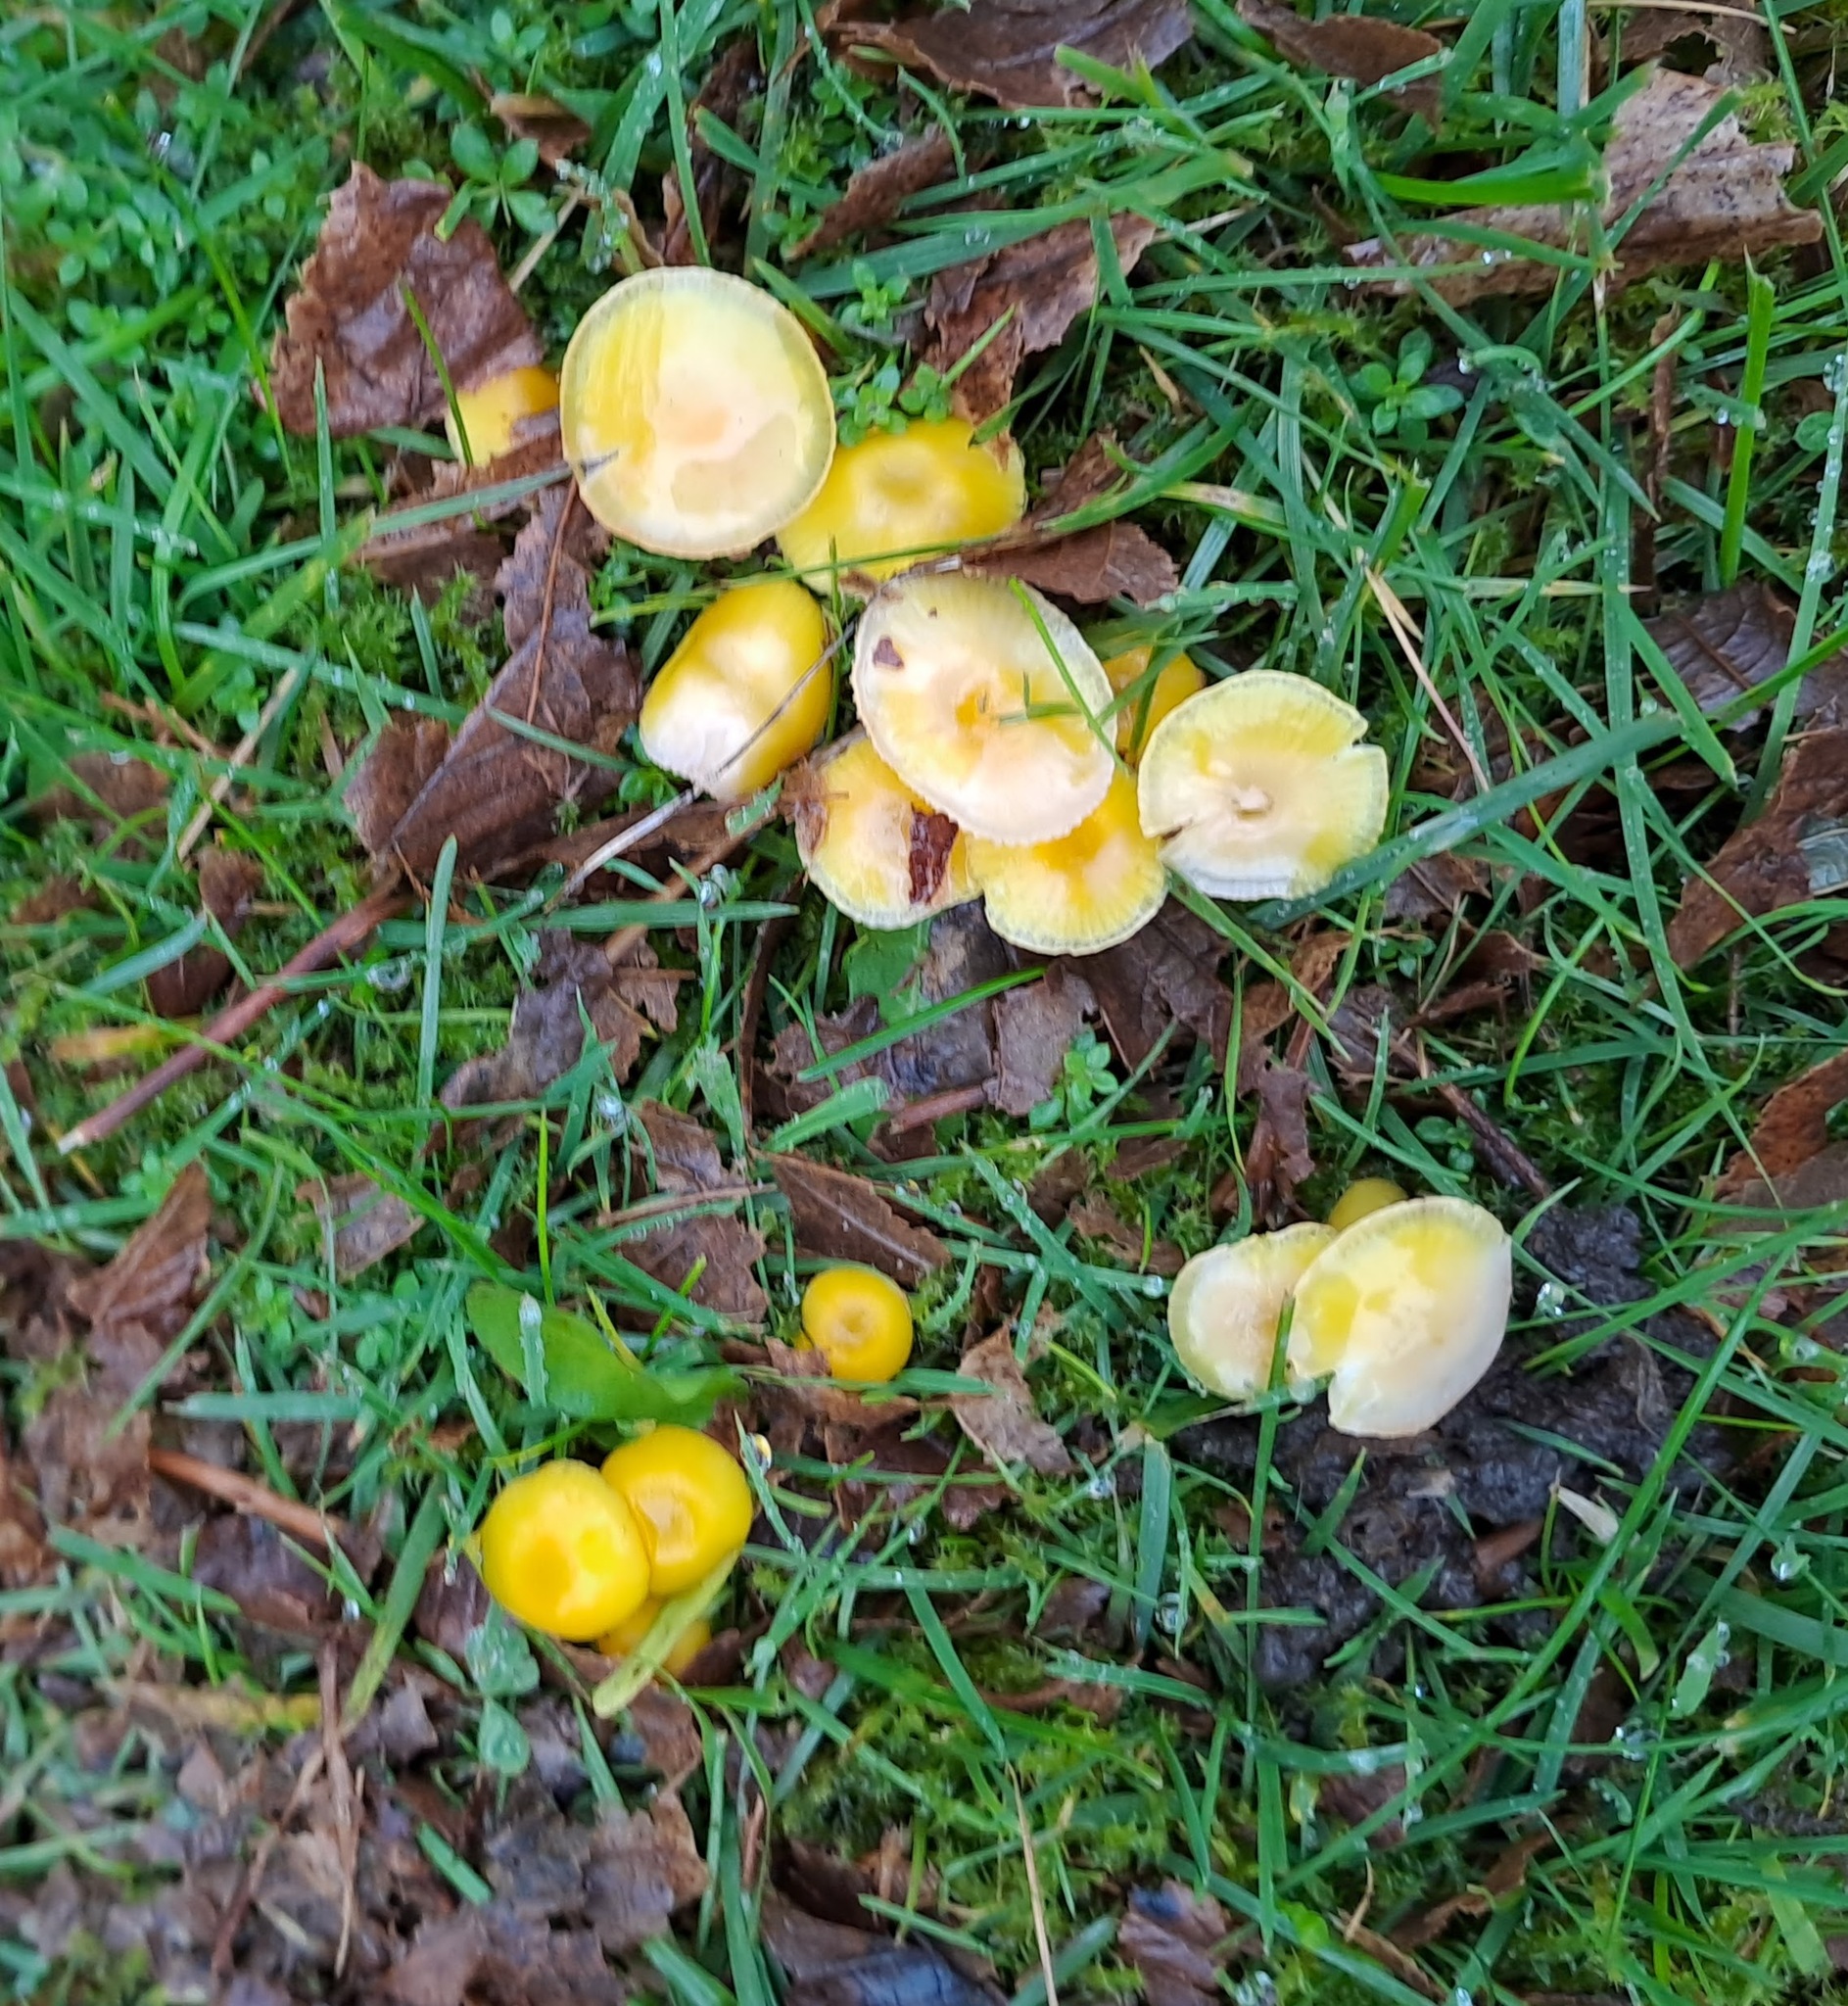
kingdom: Fungi
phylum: Basidiomycota
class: Agaricomycetes
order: Agaricales
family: Hygrophoraceae
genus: Hygrocybe
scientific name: Hygrocybe ceracea
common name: Butter waxcap
